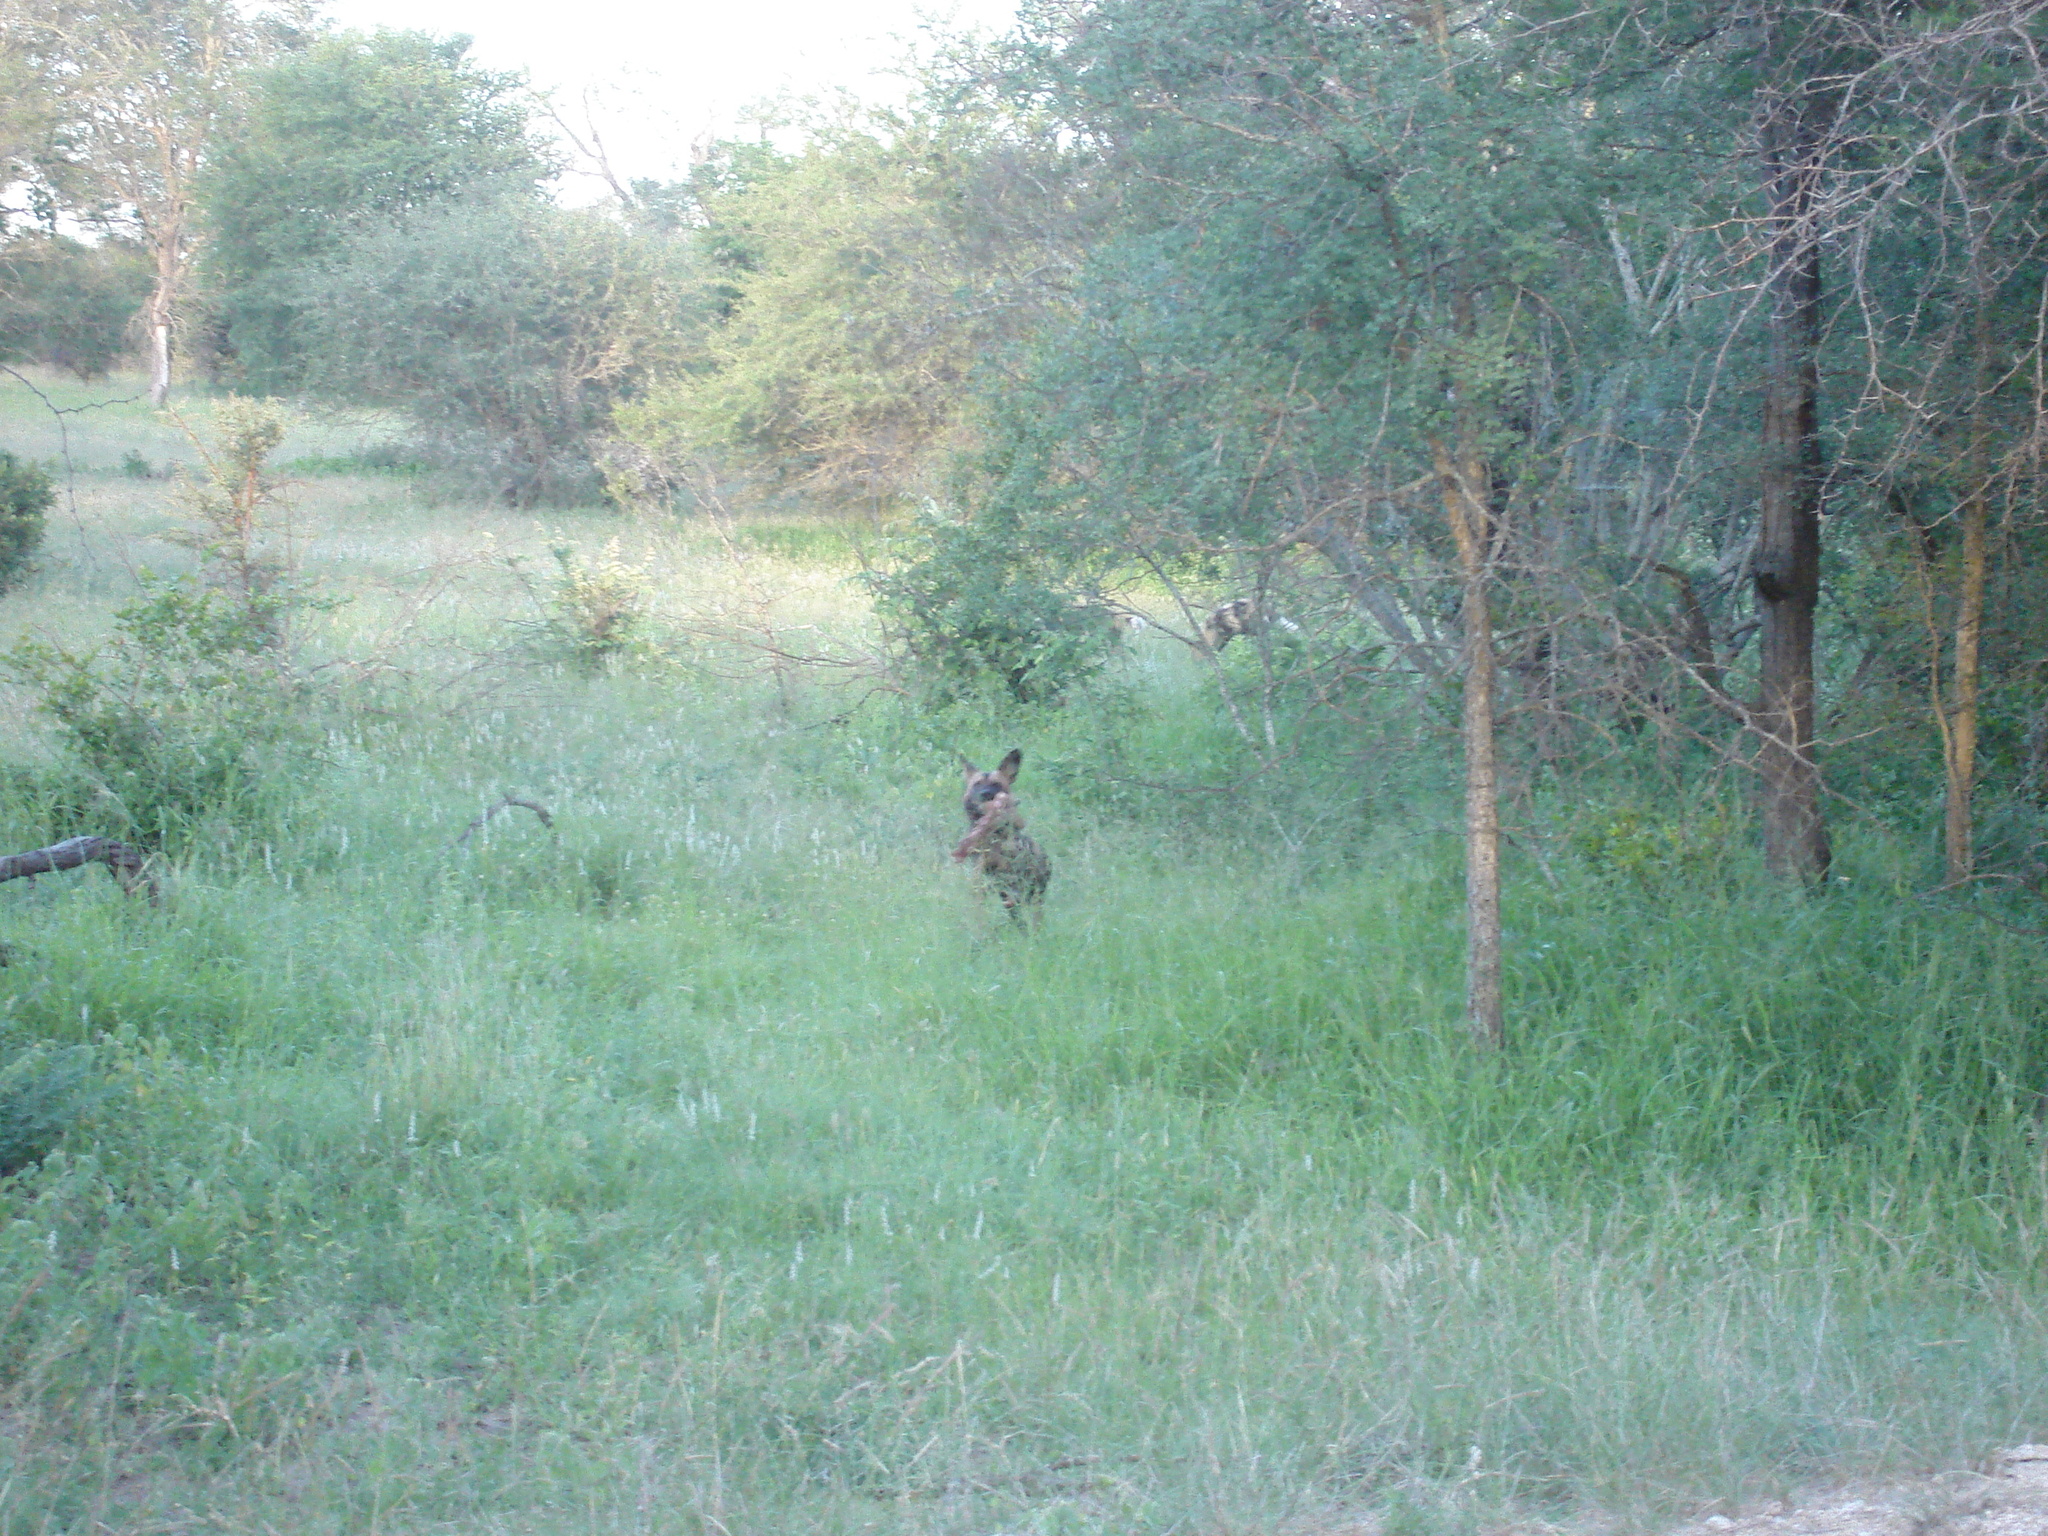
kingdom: Animalia
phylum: Chordata
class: Mammalia
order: Carnivora
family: Canidae
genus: Lycaon
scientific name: Lycaon pictus
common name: African wild dog
